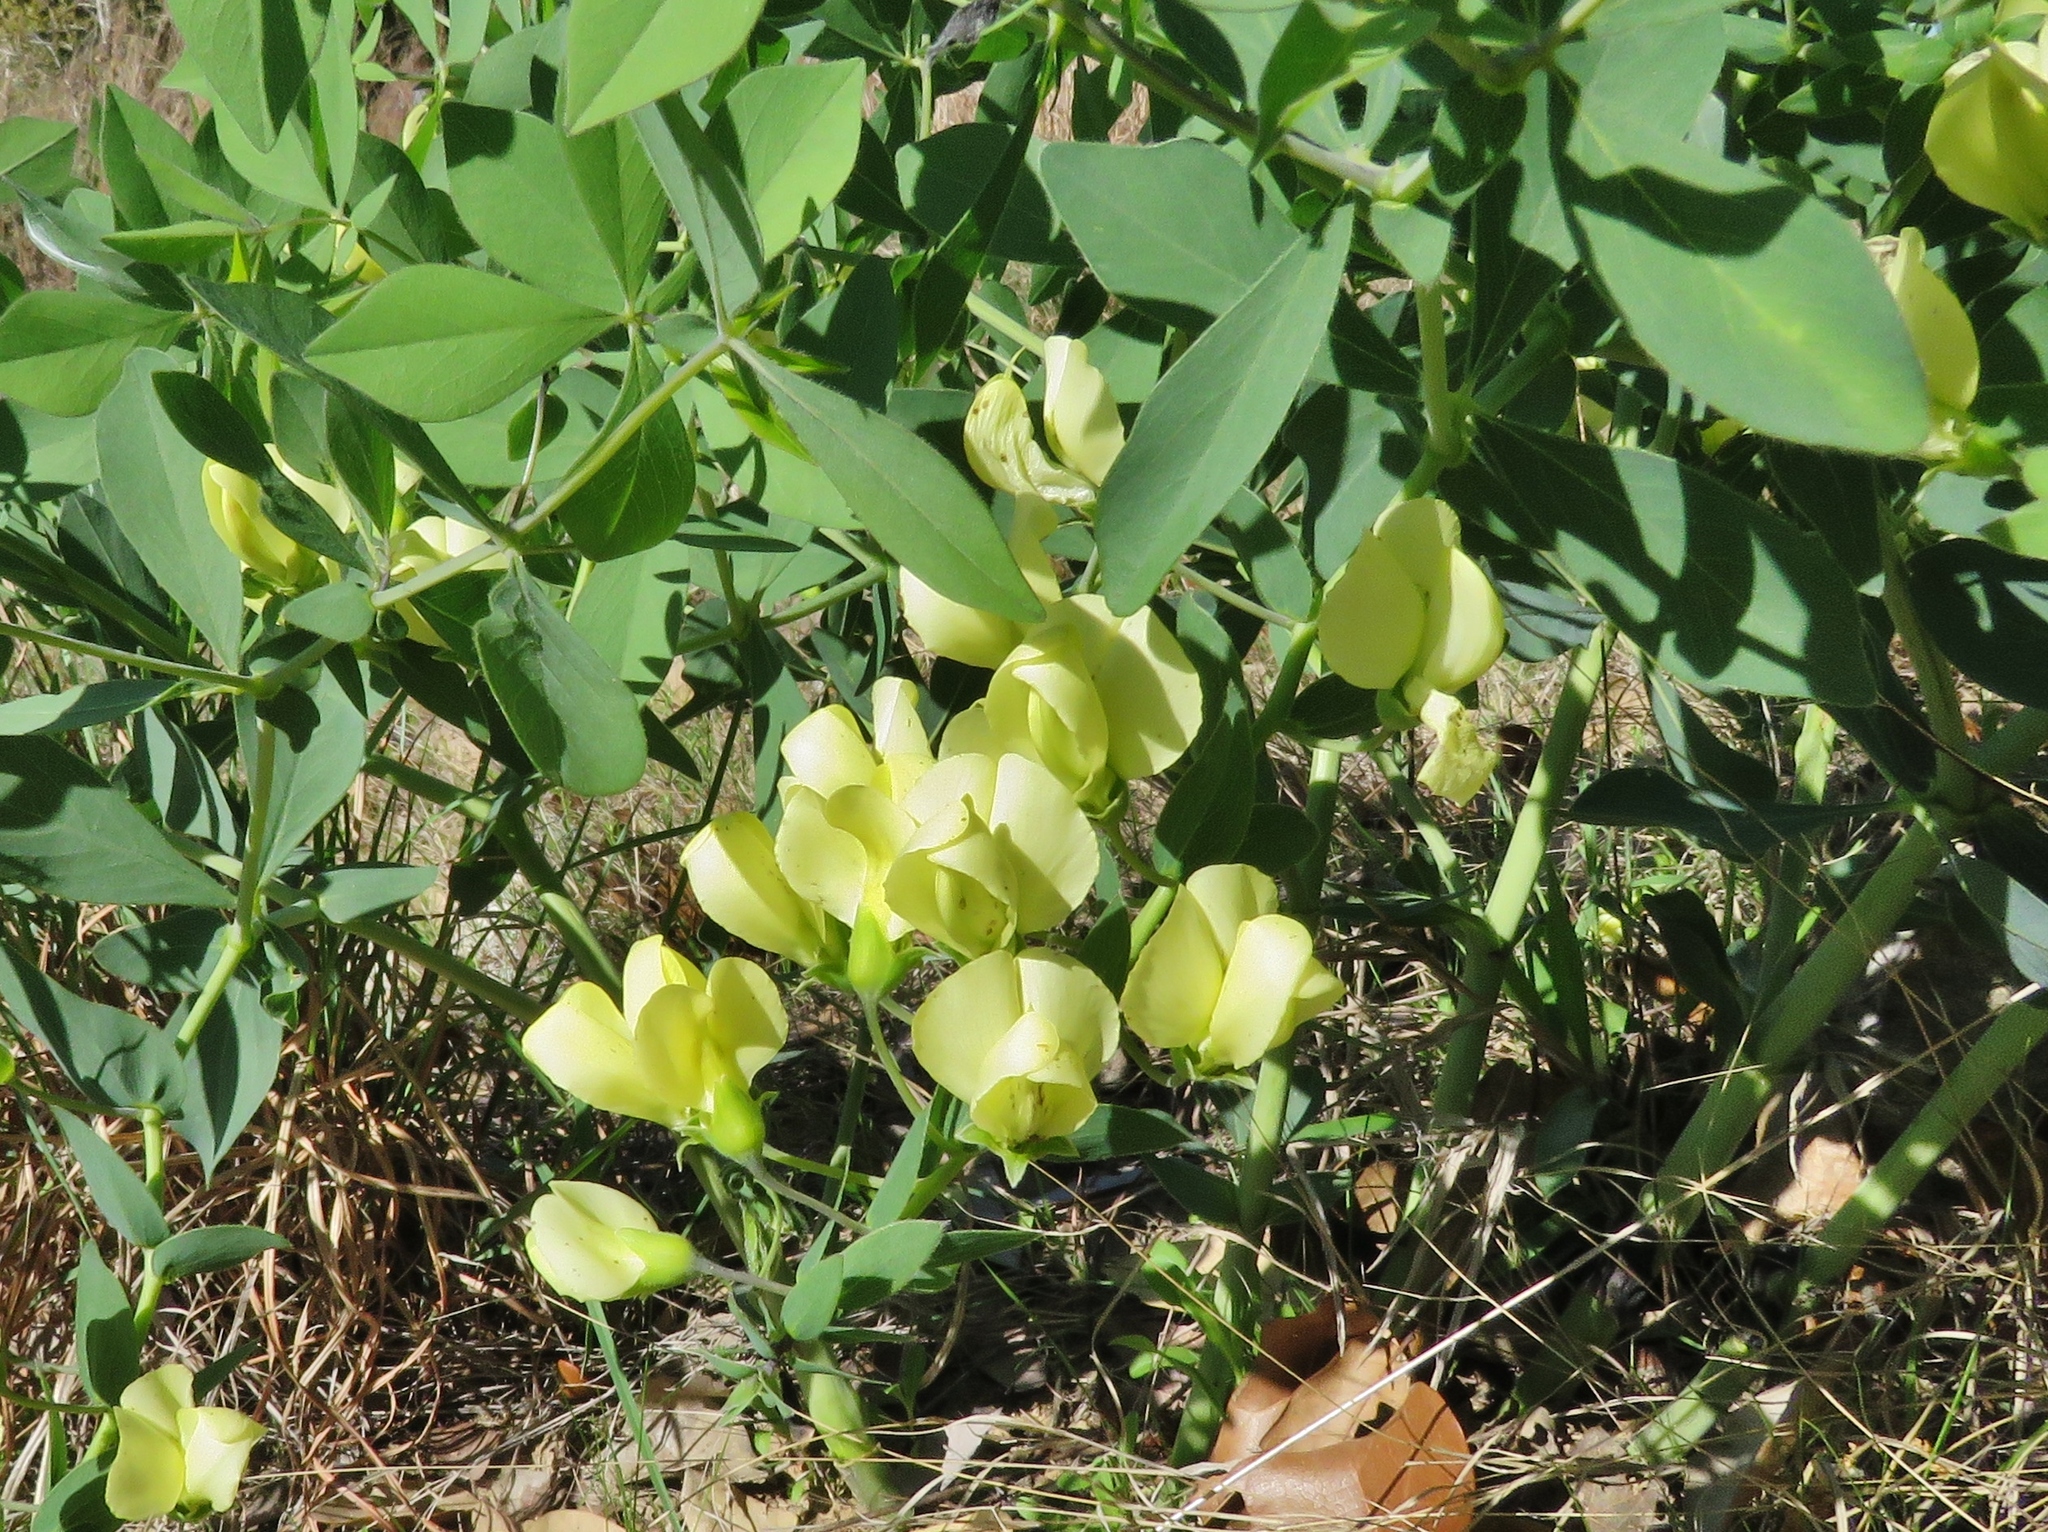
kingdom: Plantae
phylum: Tracheophyta
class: Magnoliopsida
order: Fabales
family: Fabaceae
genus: Baptisia
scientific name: Baptisia bracteata
